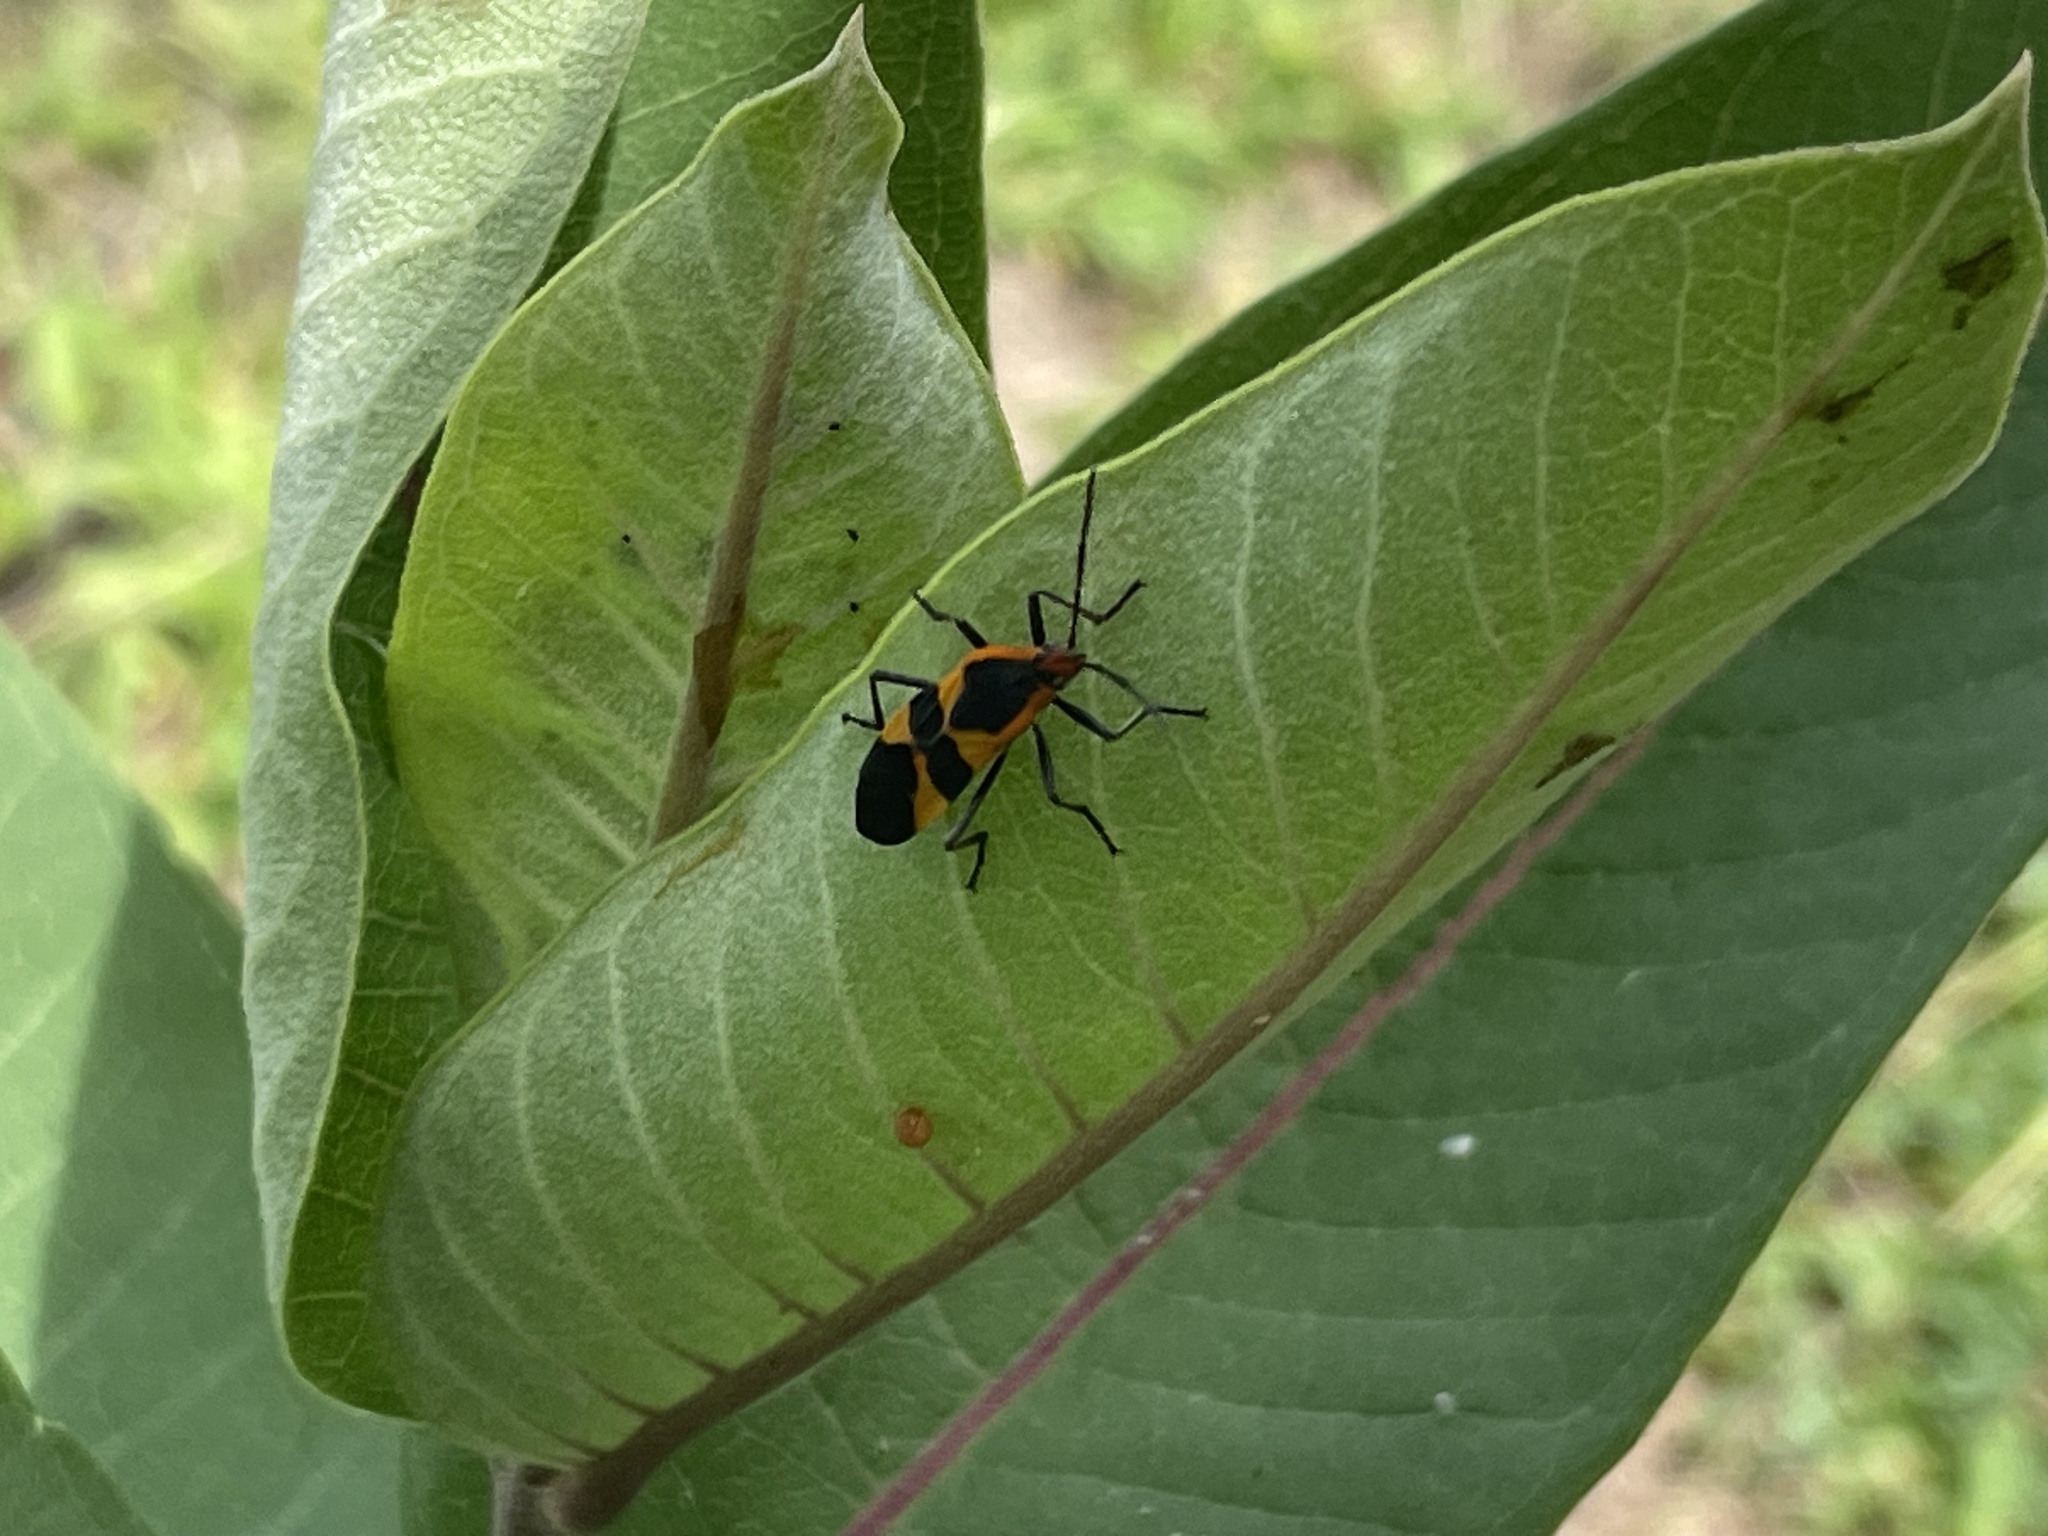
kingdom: Animalia
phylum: Arthropoda
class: Insecta
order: Hemiptera
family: Lygaeidae
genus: Oncopeltus
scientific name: Oncopeltus fasciatus
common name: Large milkweed bug
